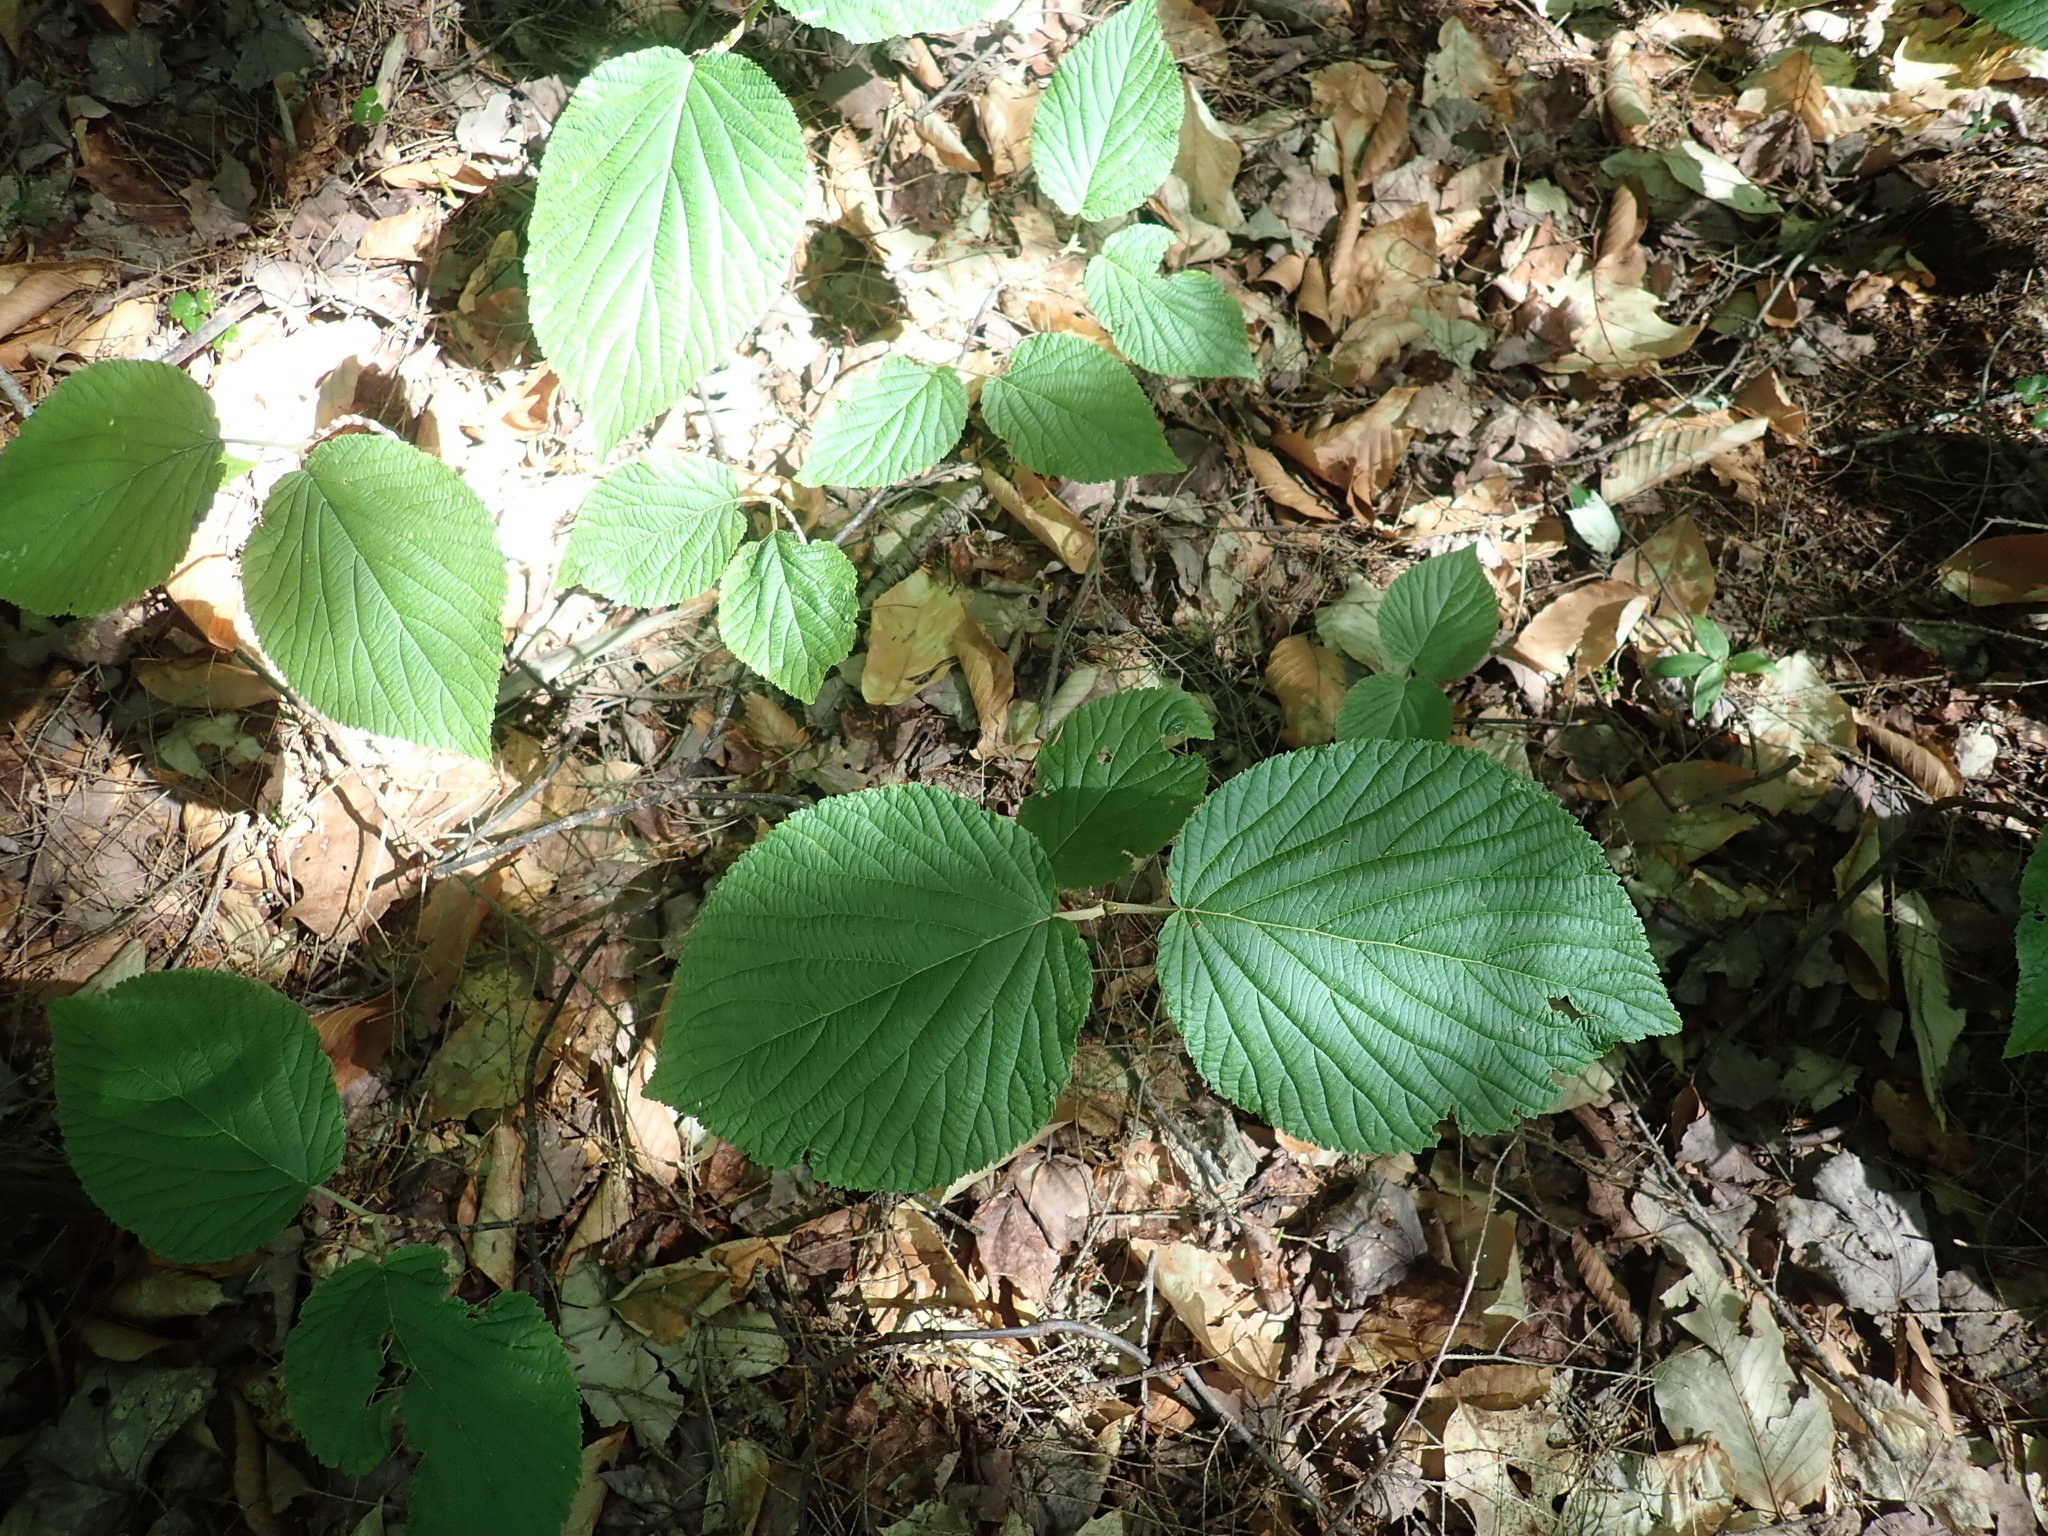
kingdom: Plantae
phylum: Tracheophyta
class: Magnoliopsida
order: Dipsacales
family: Viburnaceae
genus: Viburnum
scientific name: Viburnum lantanoides
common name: Hobblebush
